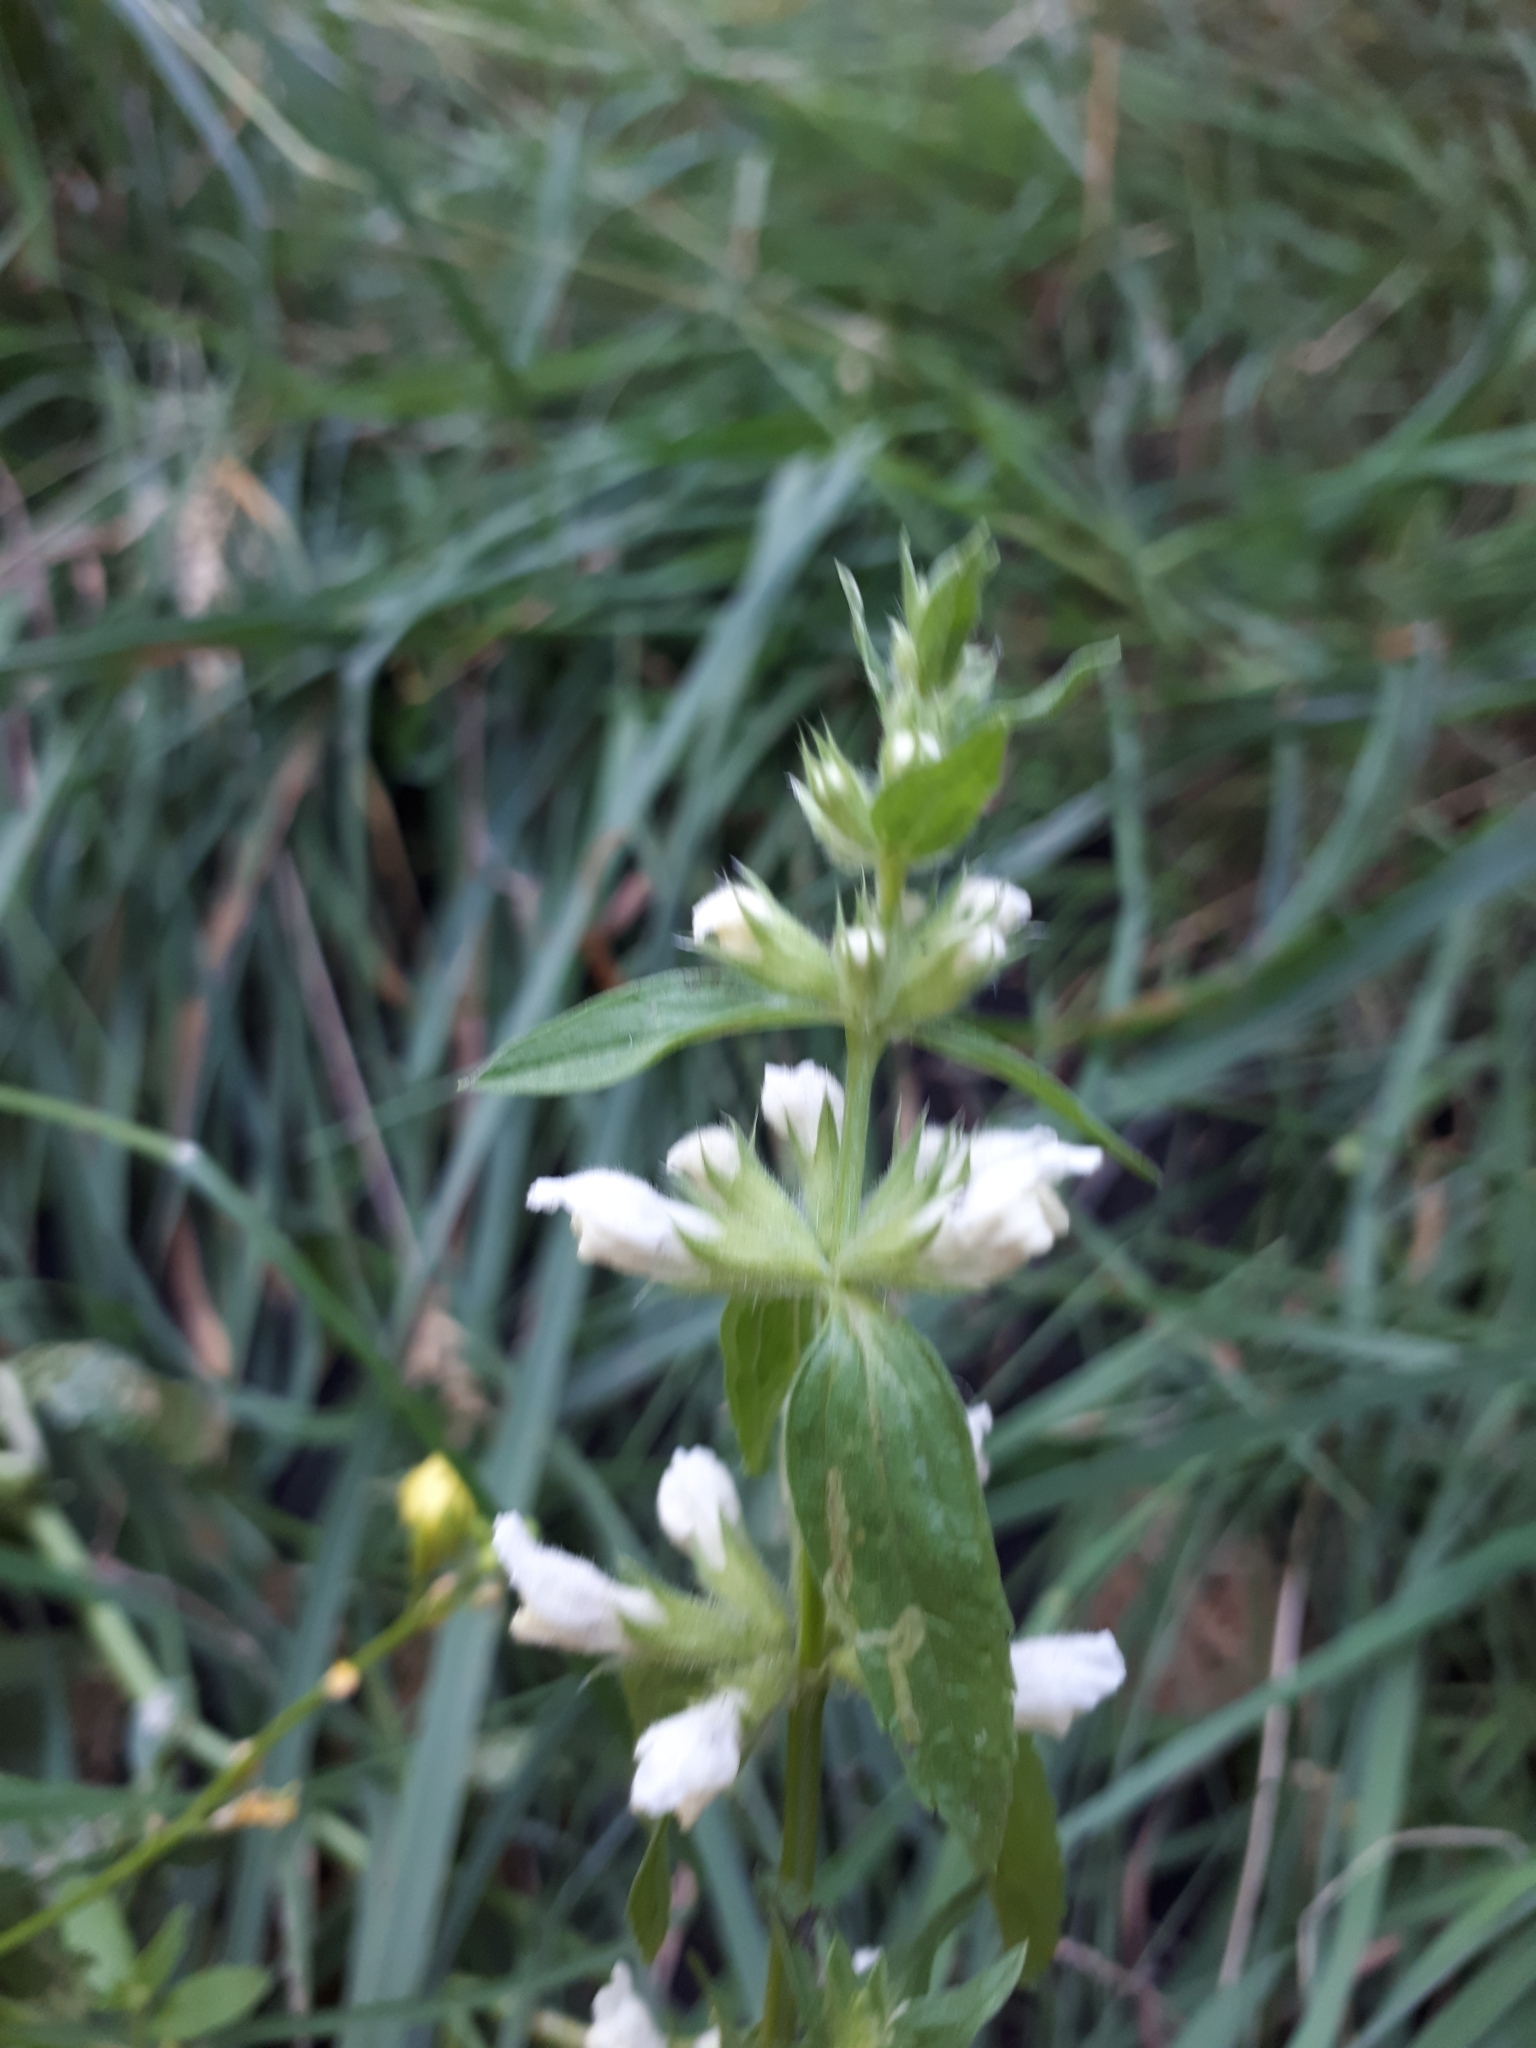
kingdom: Plantae
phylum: Tracheophyta
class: Magnoliopsida
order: Lamiales
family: Lamiaceae
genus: Stachys
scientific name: Stachys annua
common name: Annual yellow-woundwort
